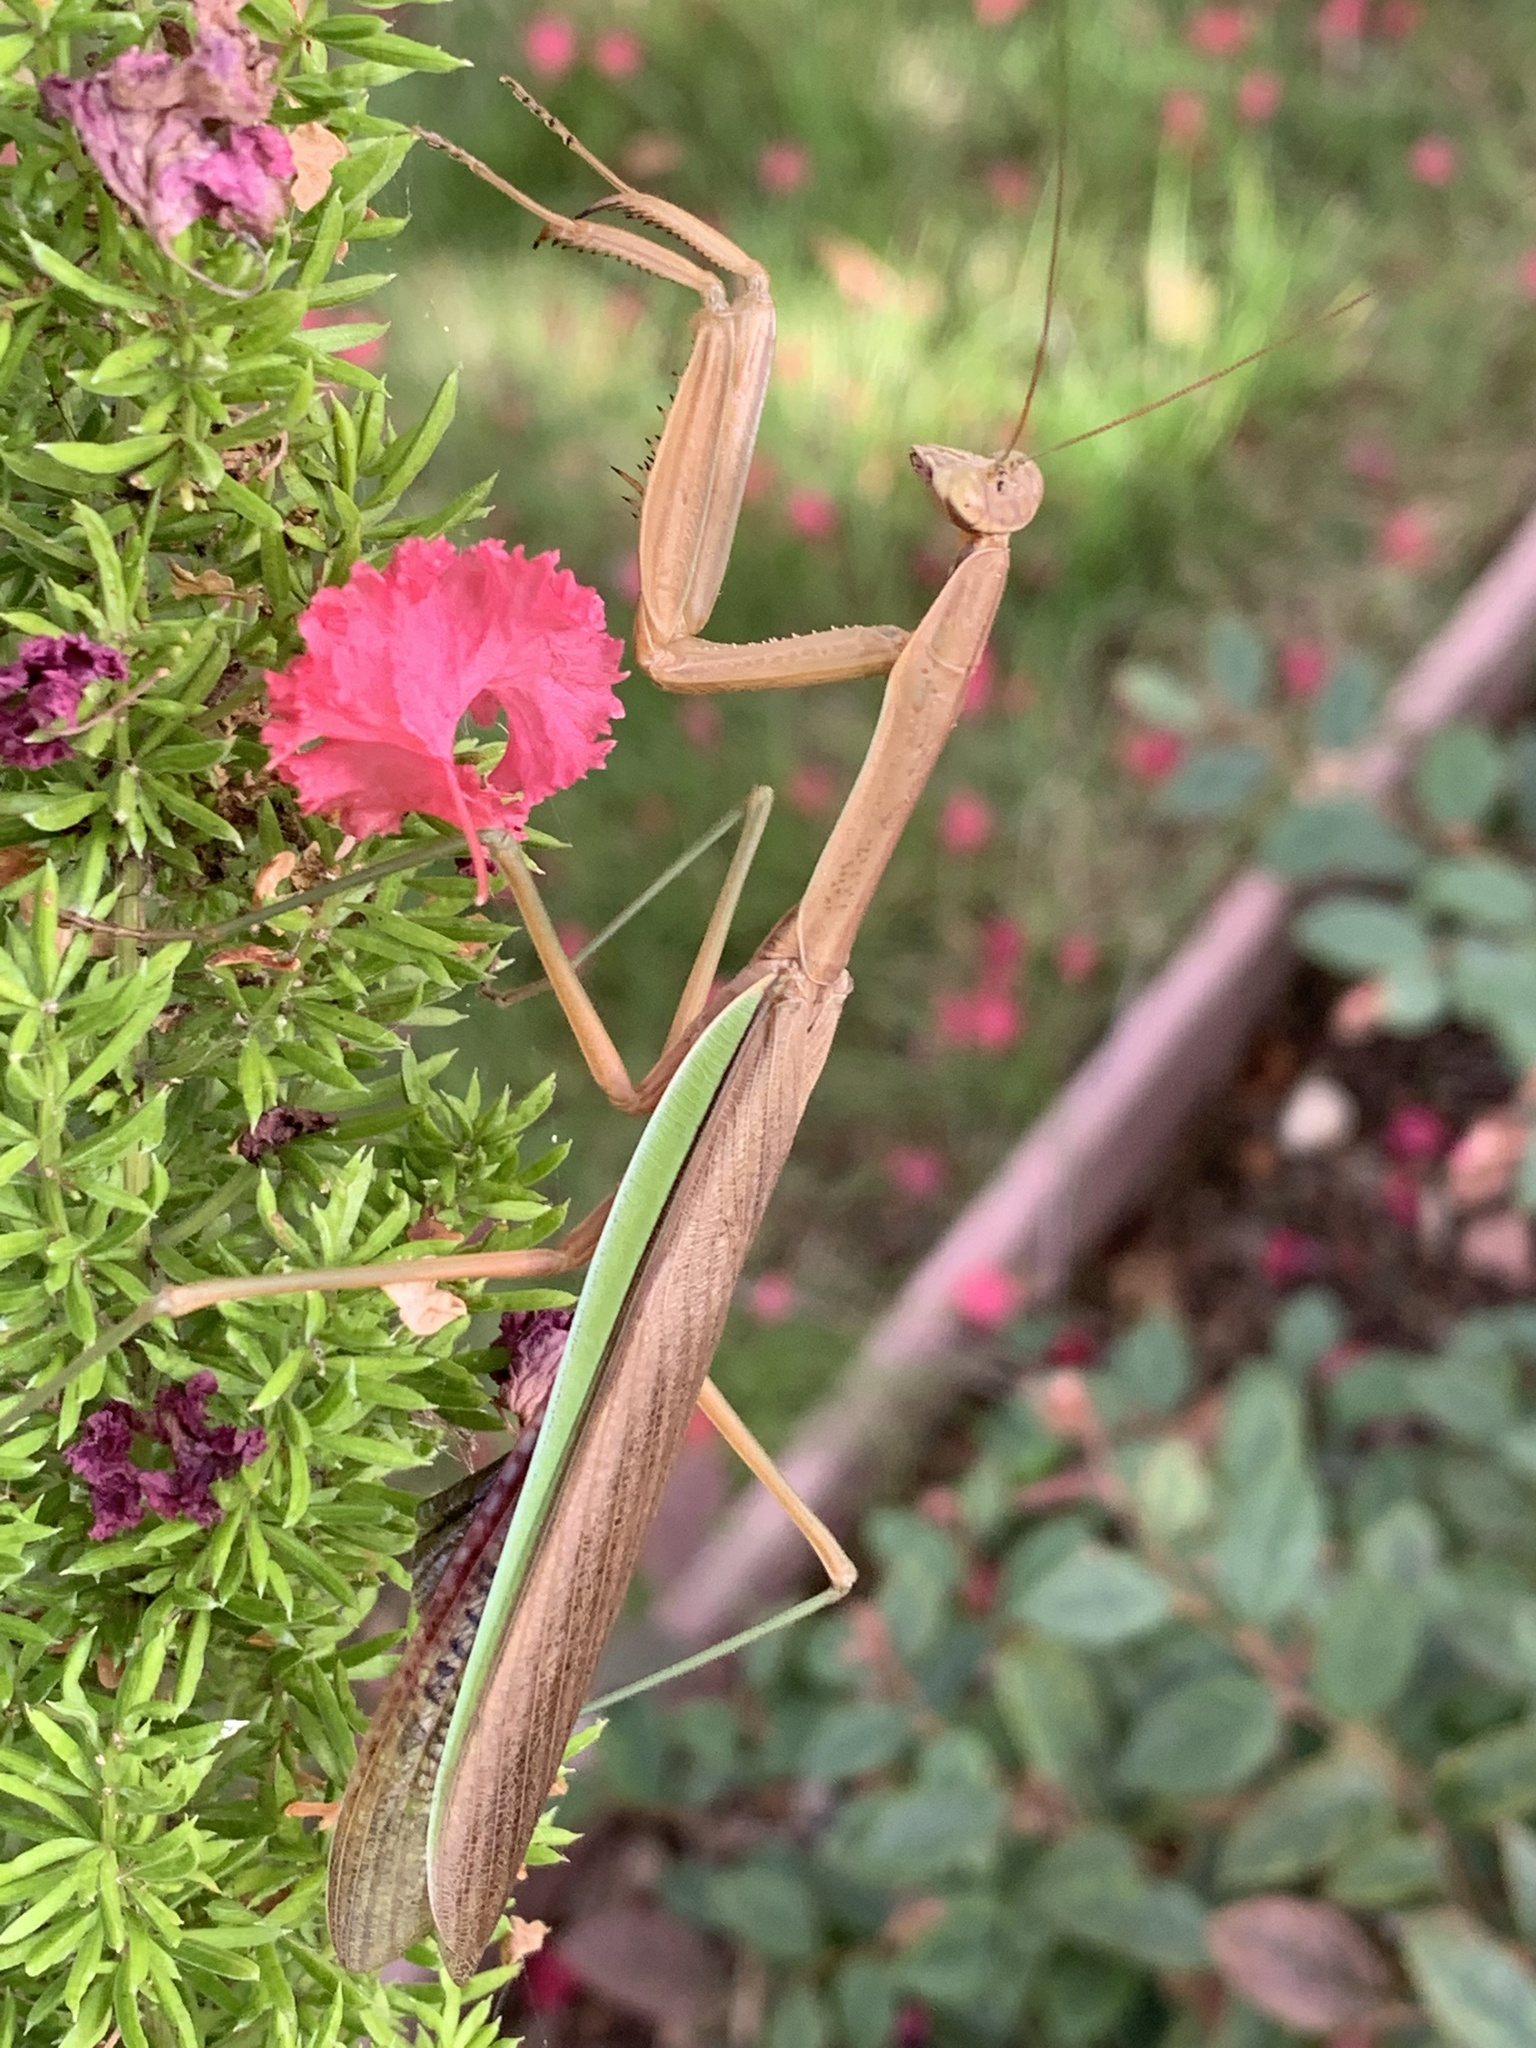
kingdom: Animalia
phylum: Arthropoda
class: Insecta
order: Mantodea
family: Mantidae
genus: Tenodera
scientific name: Tenodera sinensis
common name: Chinese mantis
